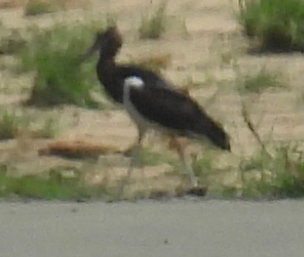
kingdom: Animalia
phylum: Chordata
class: Aves
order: Ciconiiformes
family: Ciconiidae
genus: Ciconia
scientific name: Ciconia abdimii
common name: Abdim's stork
